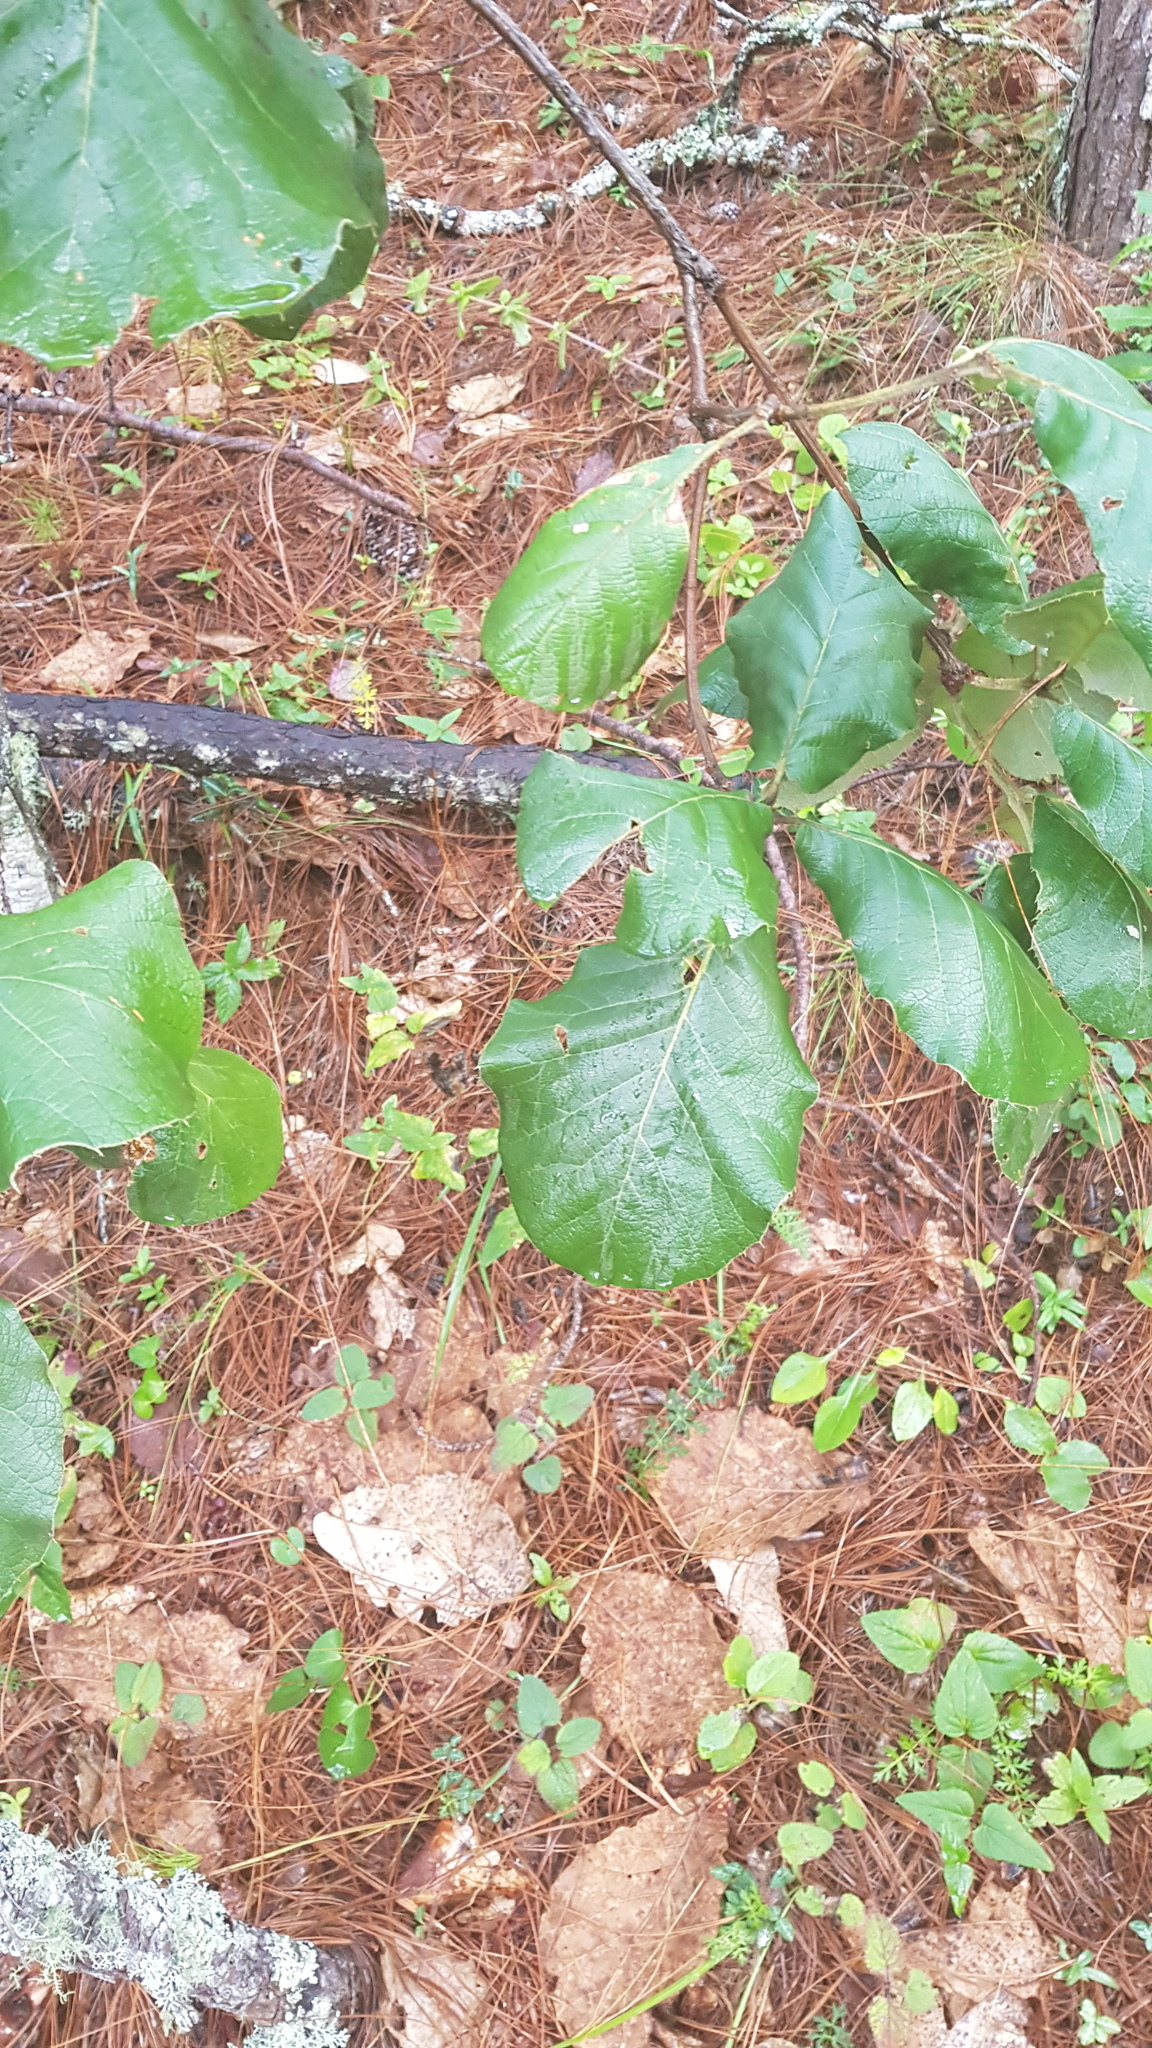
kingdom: Plantae
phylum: Tracheophyta
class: Magnoliopsida
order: Fagales
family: Fagaceae
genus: Quercus
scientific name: Quercus crassifolia
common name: Leather leaf mexican oak
